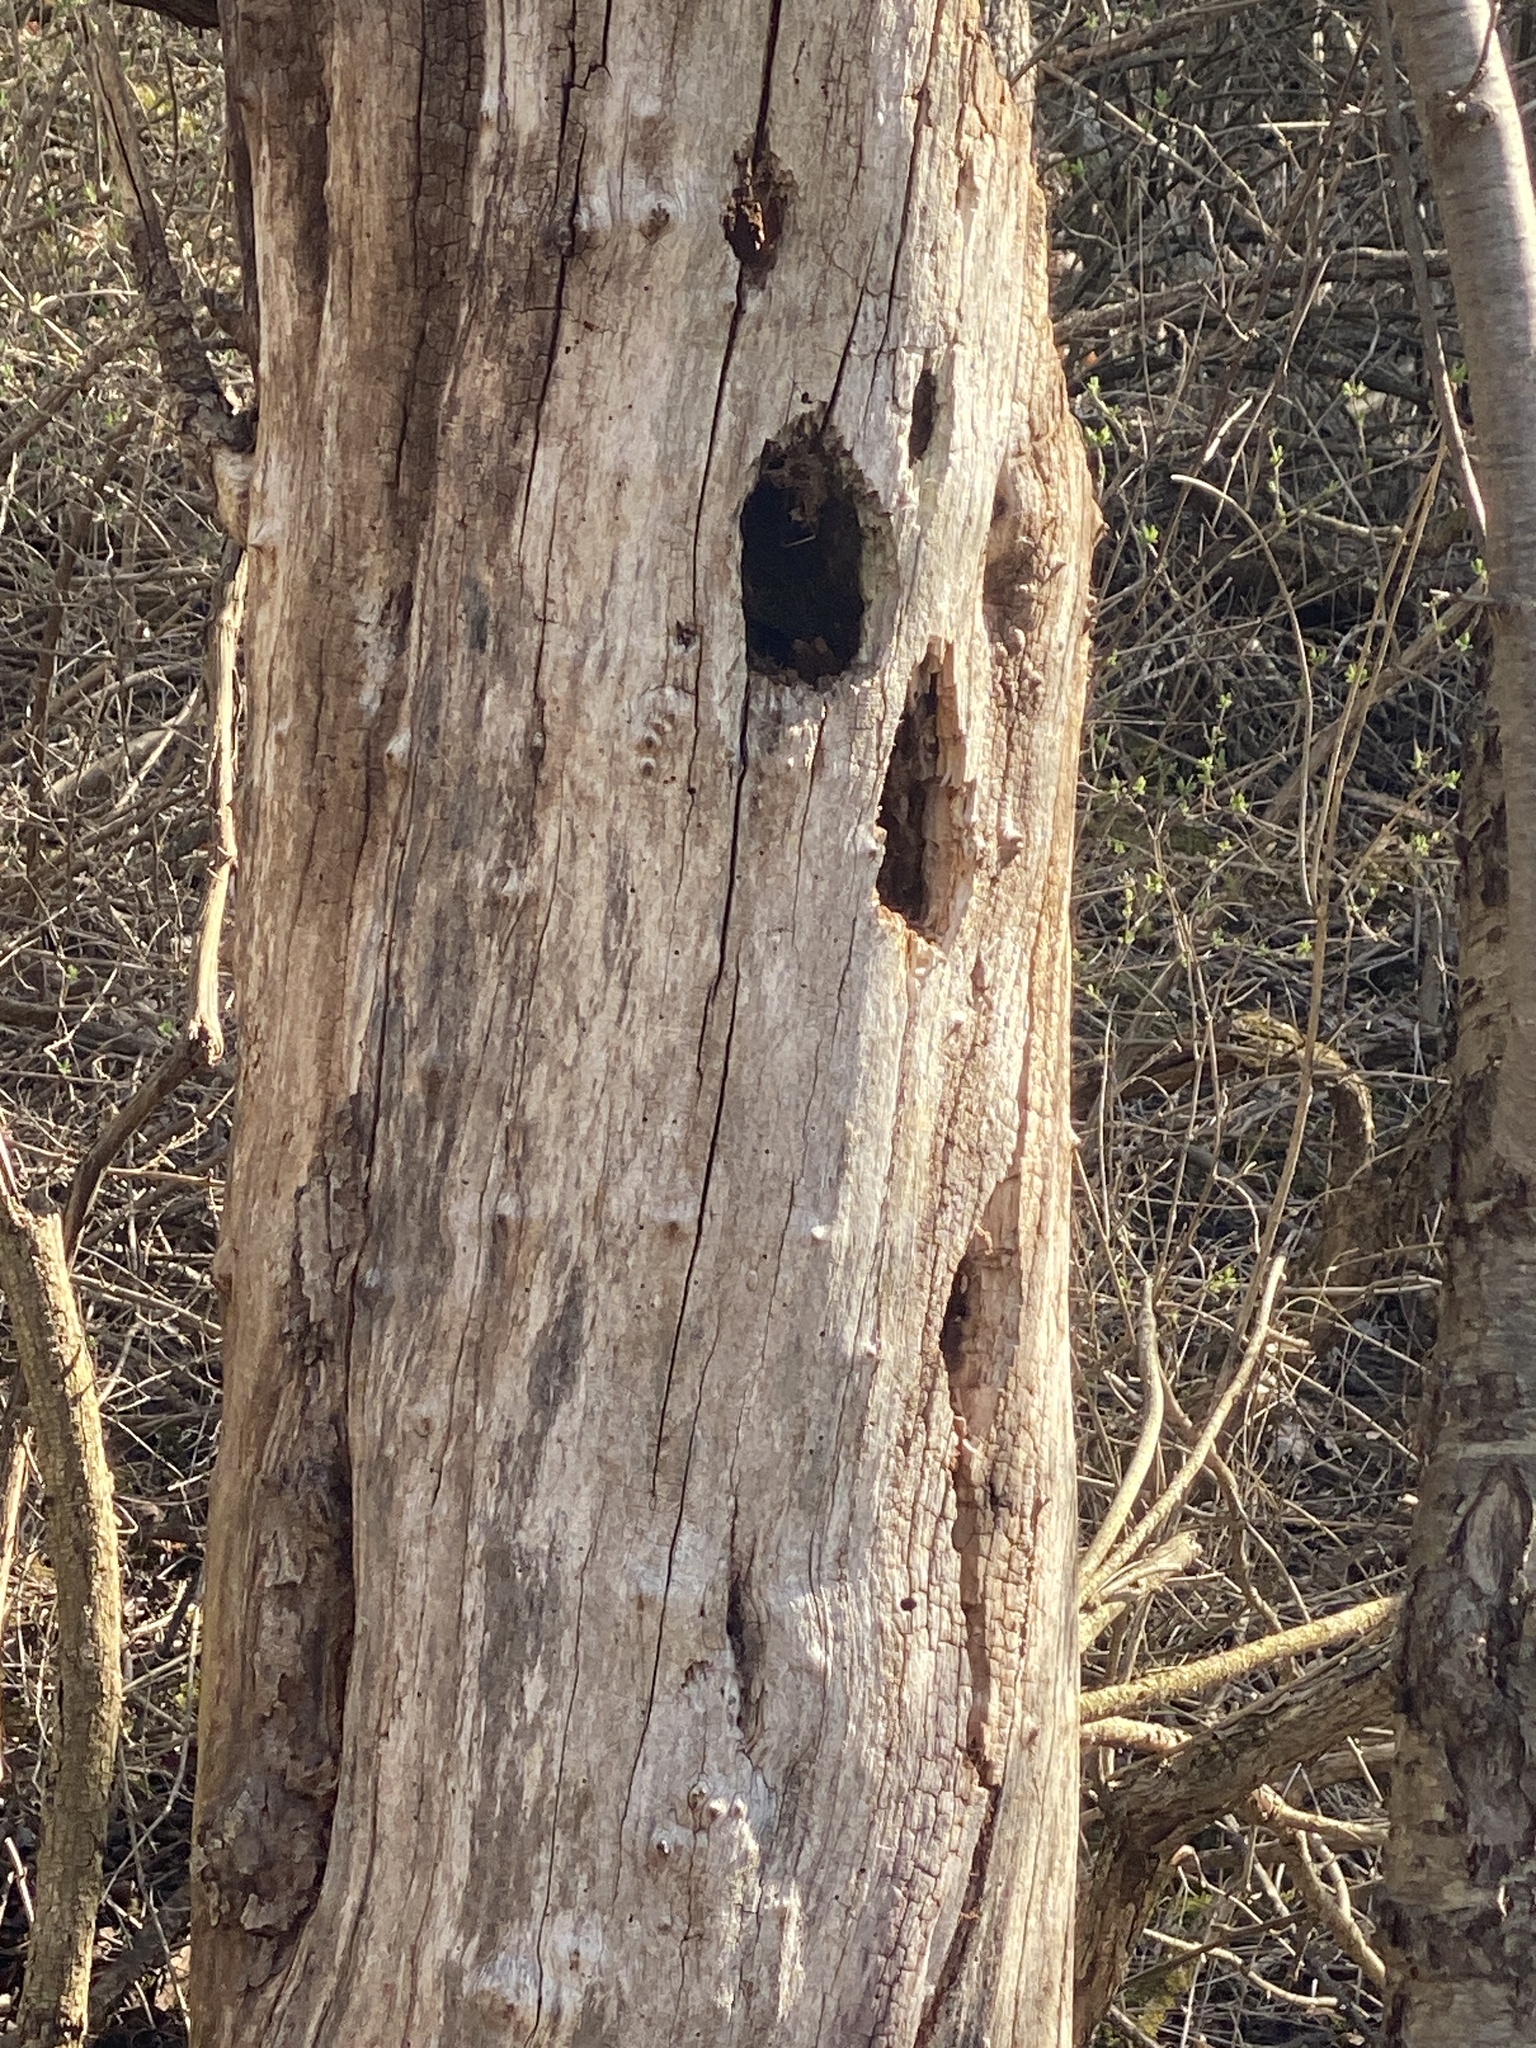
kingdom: Animalia
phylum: Chordata
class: Aves
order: Piciformes
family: Picidae
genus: Dryocopus
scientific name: Dryocopus pileatus
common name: Pileated woodpecker
